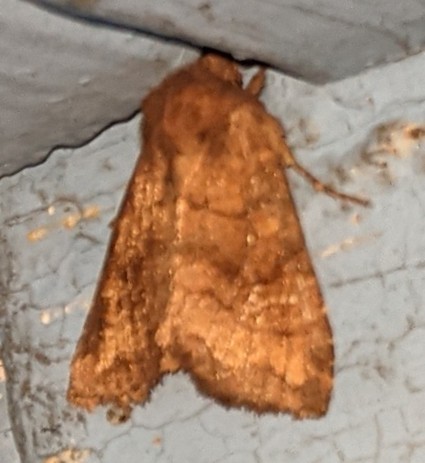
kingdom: Animalia
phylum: Arthropoda
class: Insecta
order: Lepidoptera
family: Noctuidae
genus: Tricholita
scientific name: Tricholita signata
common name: Signate quaker
